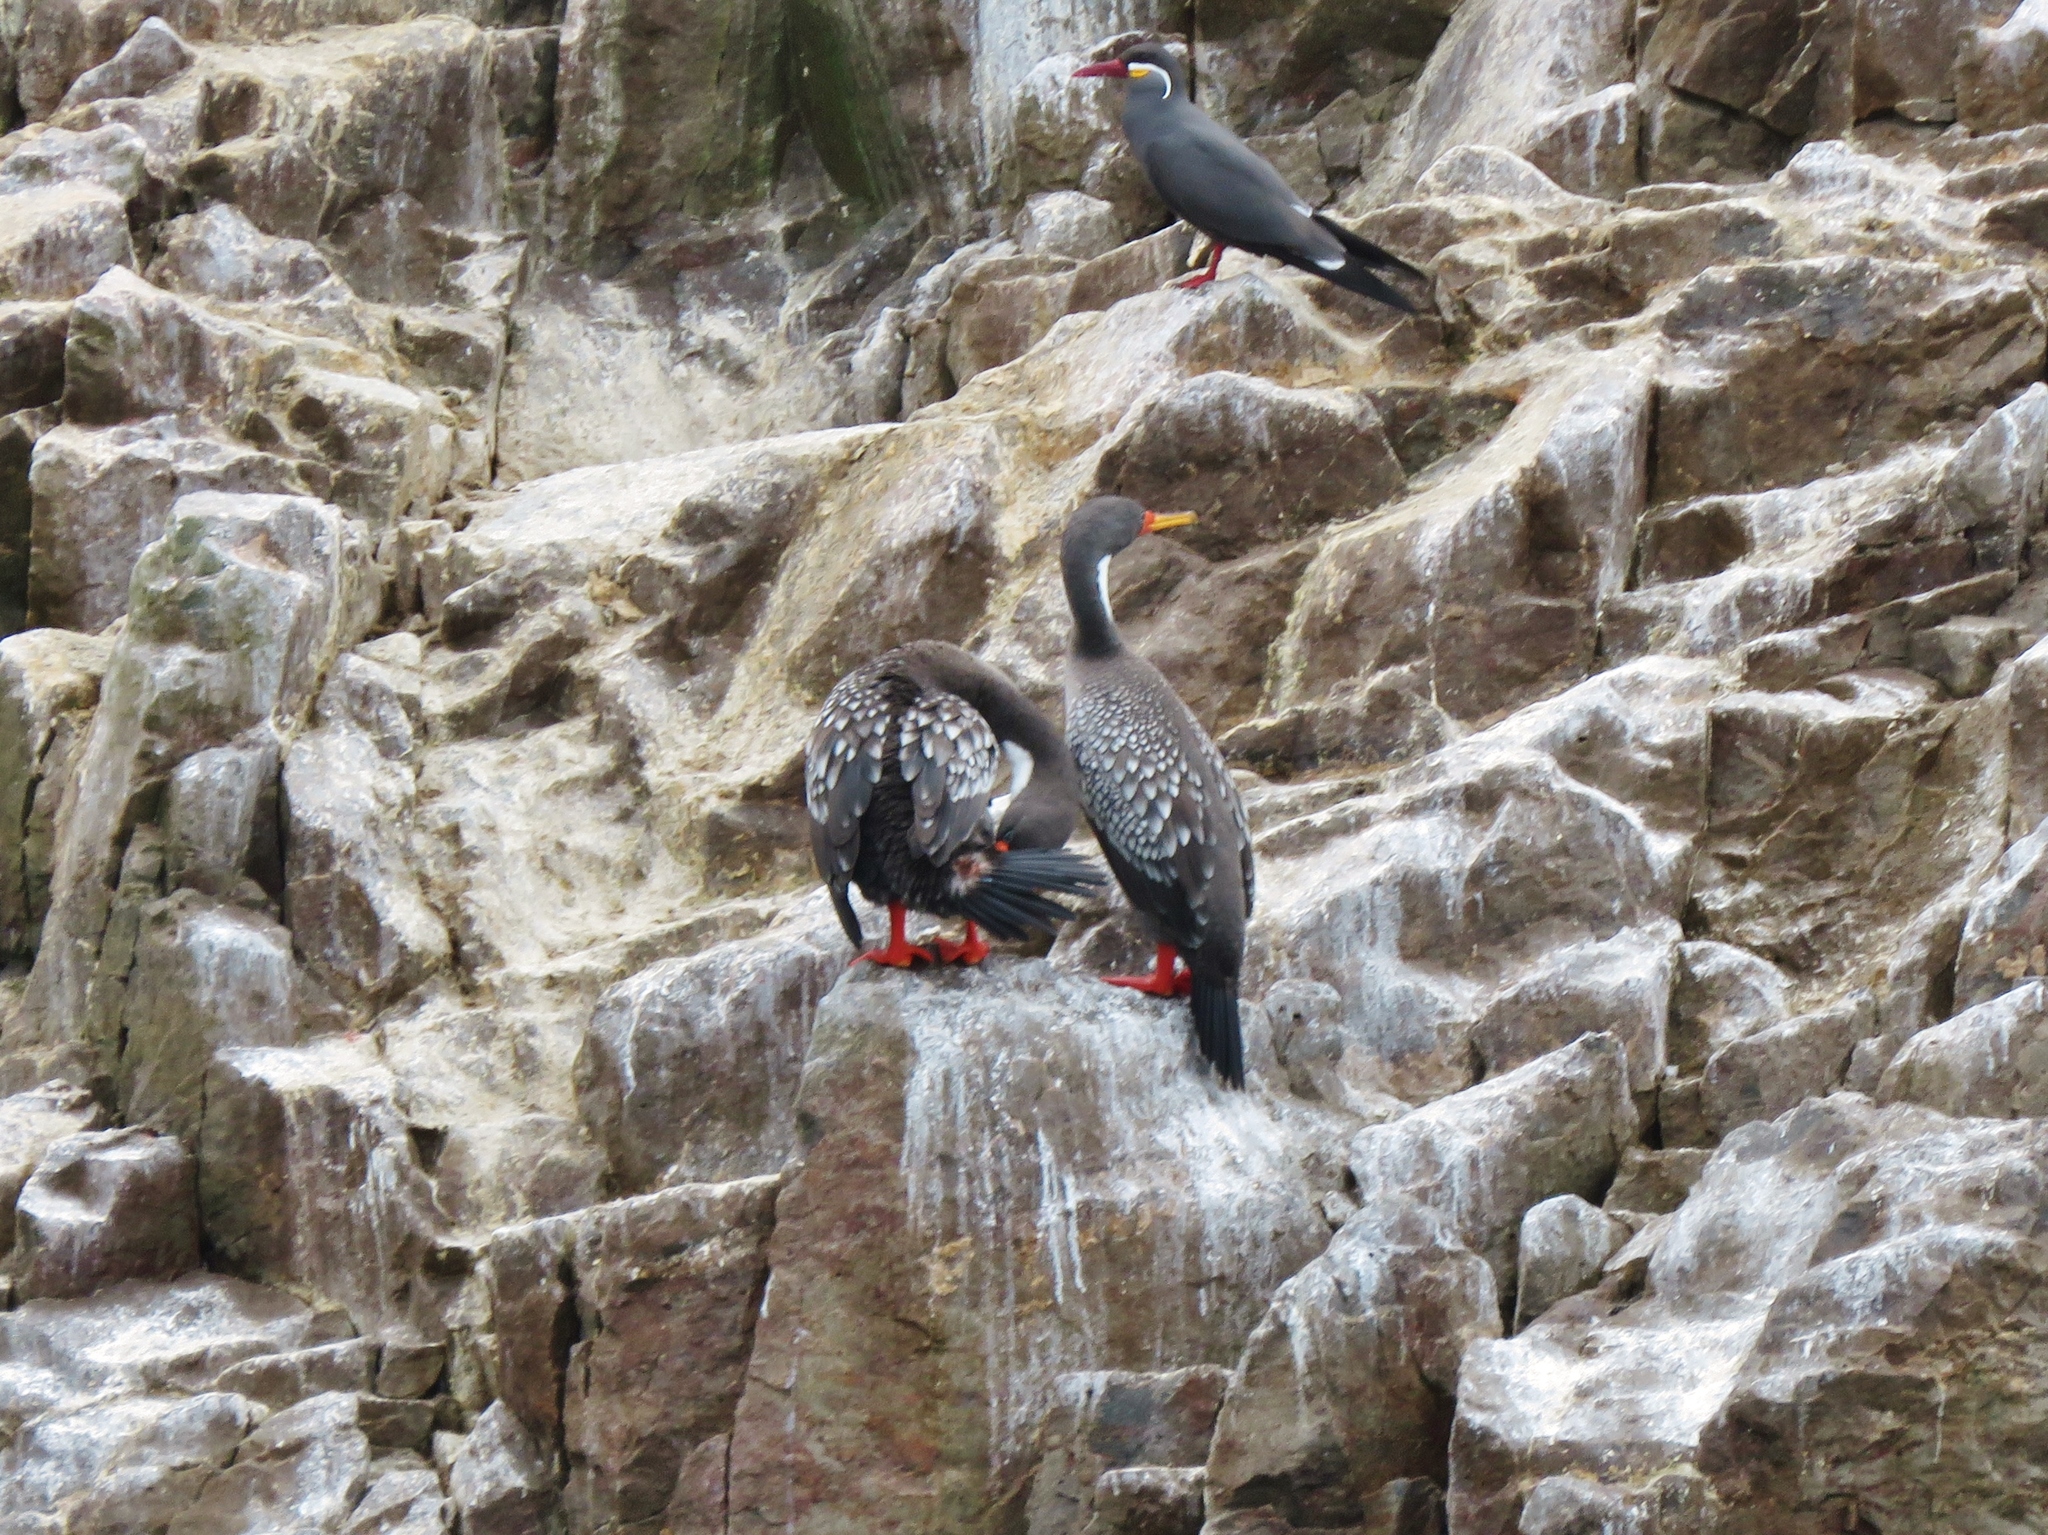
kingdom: Animalia
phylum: Chordata
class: Aves
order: Suliformes
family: Phalacrocoracidae
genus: Phalacrocorax
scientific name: Phalacrocorax gaimardi
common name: Red-legged cormorant
